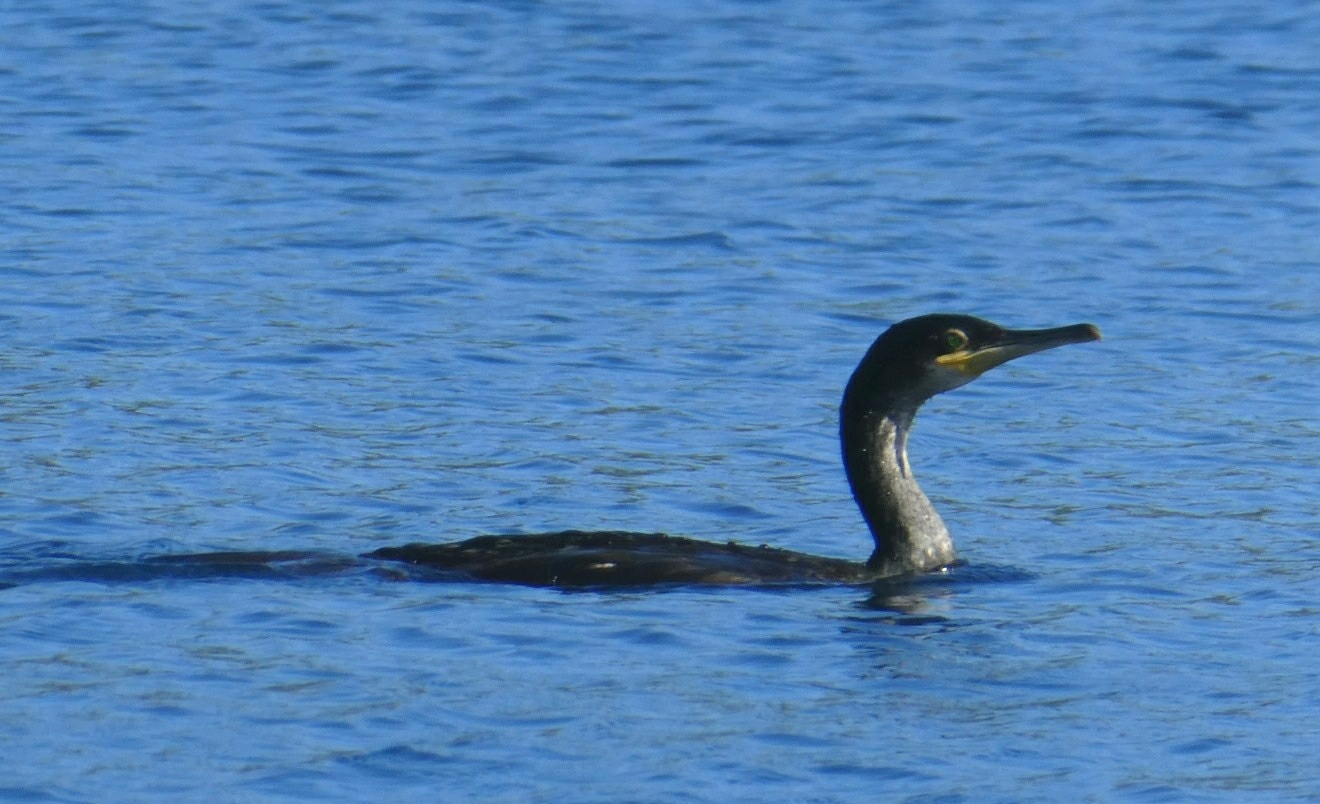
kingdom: Animalia
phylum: Chordata
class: Aves
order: Suliformes
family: Phalacrocoracidae
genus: Phalacrocorax
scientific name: Phalacrocorax aristotelis
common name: European shag
